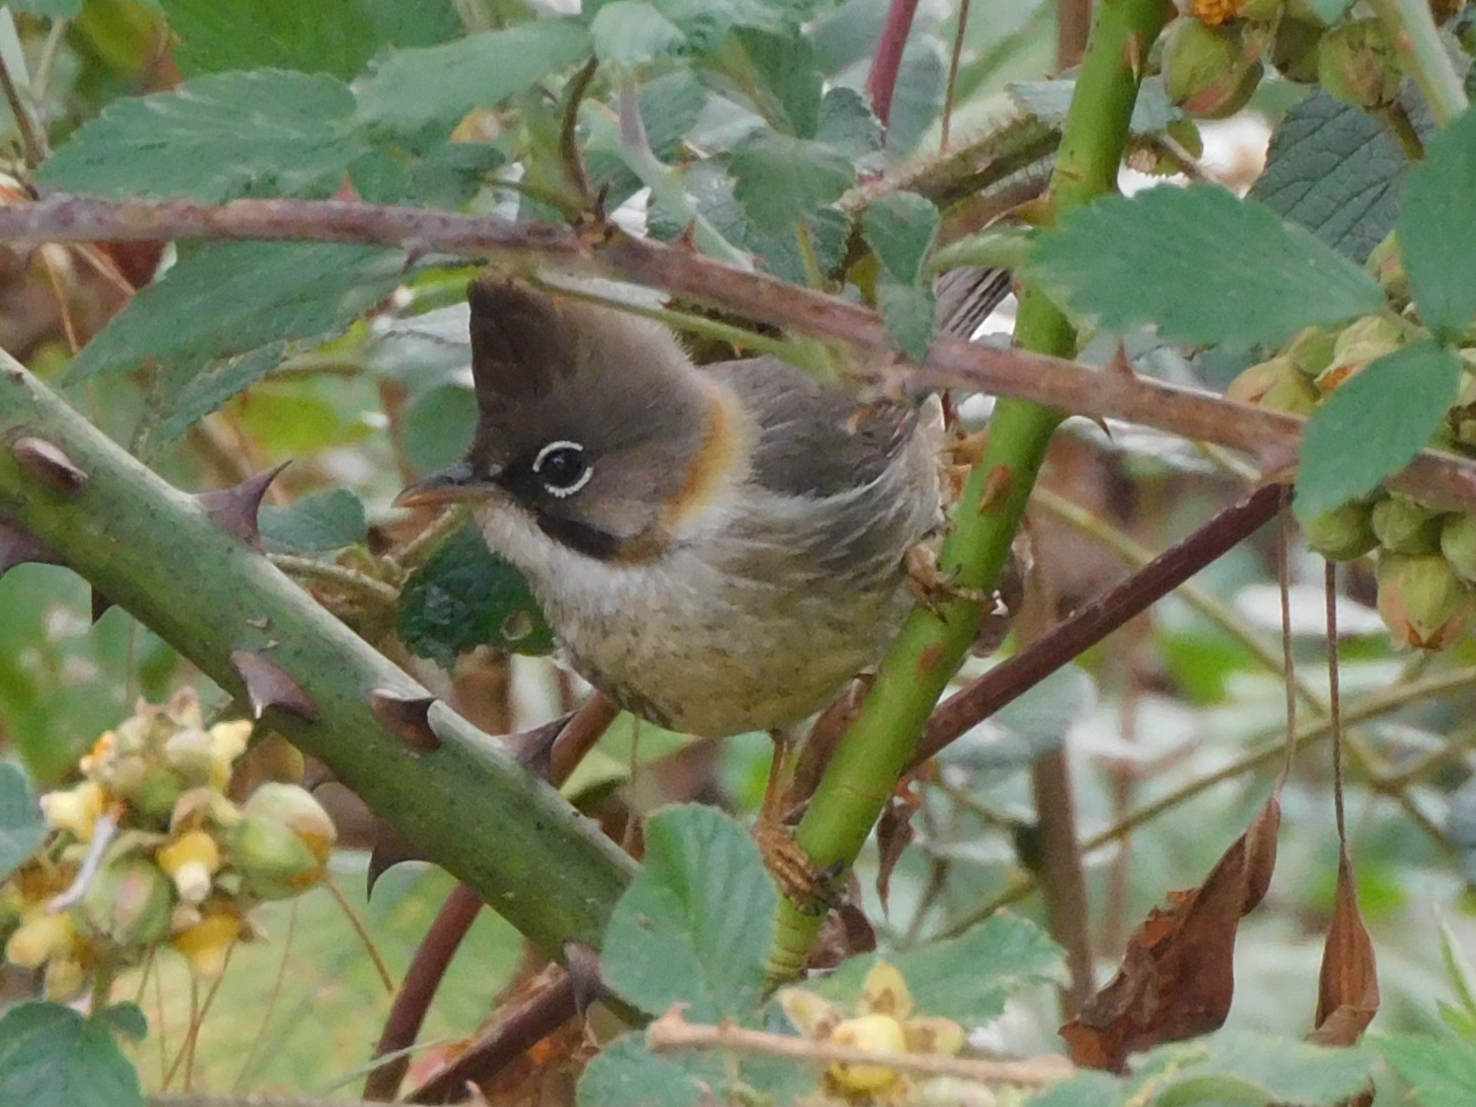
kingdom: Animalia
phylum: Chordata
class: Aves
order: Passeriformes
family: Zosteropidae
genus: Yuhina
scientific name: Yuhina flavicollis
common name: Whiskered yuhina
